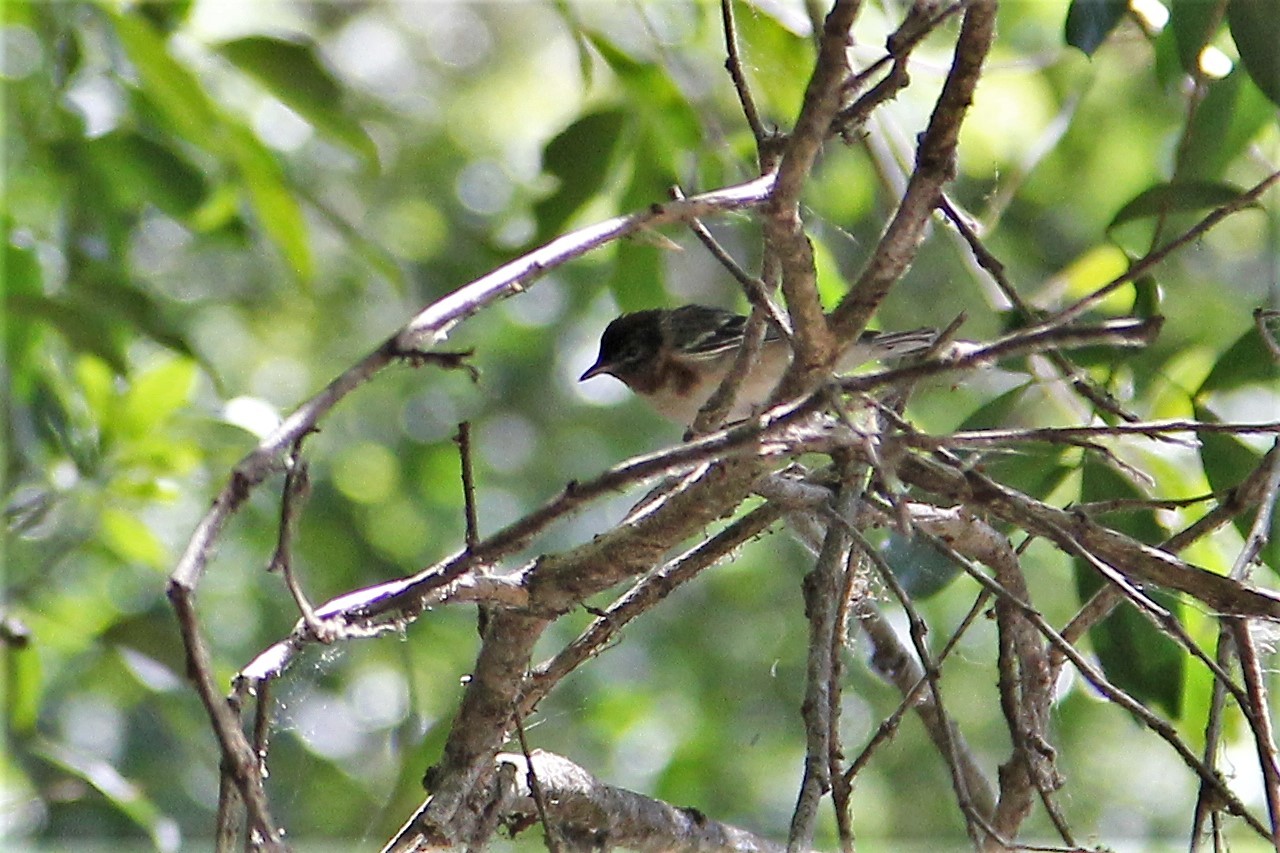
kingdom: Animalia
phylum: Chordata
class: Aves
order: Passeriformes
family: Parulidae
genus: Setophaga
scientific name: Setophaga castanea
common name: Bay-breasted warbler
